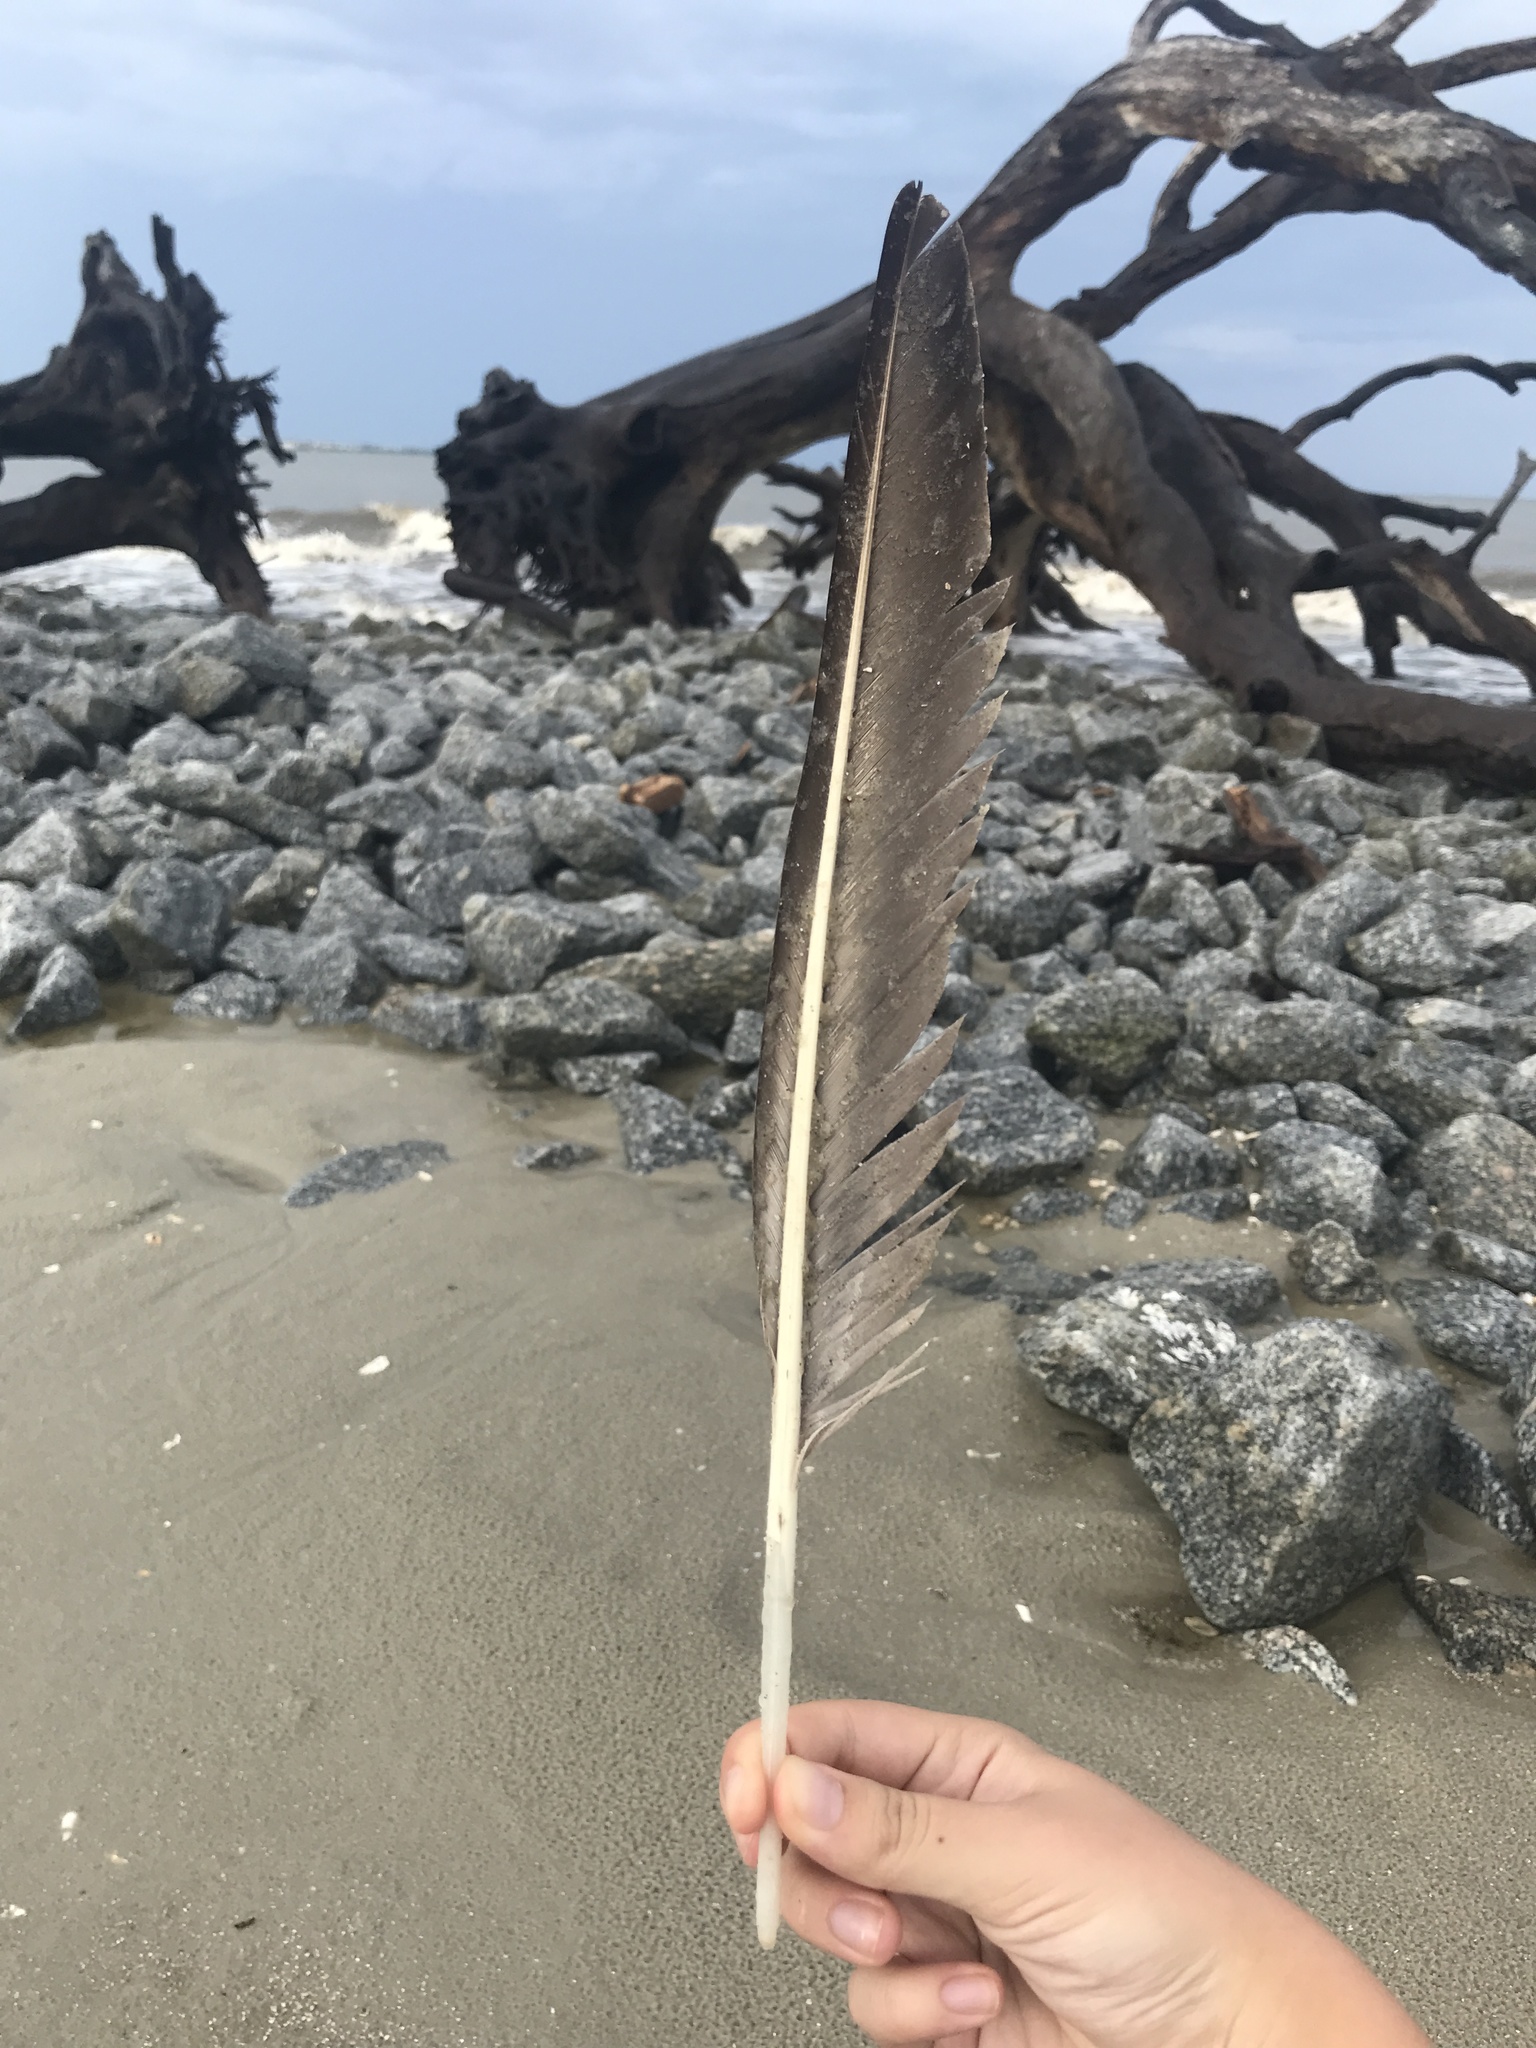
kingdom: Animalia
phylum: Chordata
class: Aves
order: Pelecaniformes
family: Pelecanidae
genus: Pelecanus
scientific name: Pelecanus occidentalis
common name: Brown pelican
